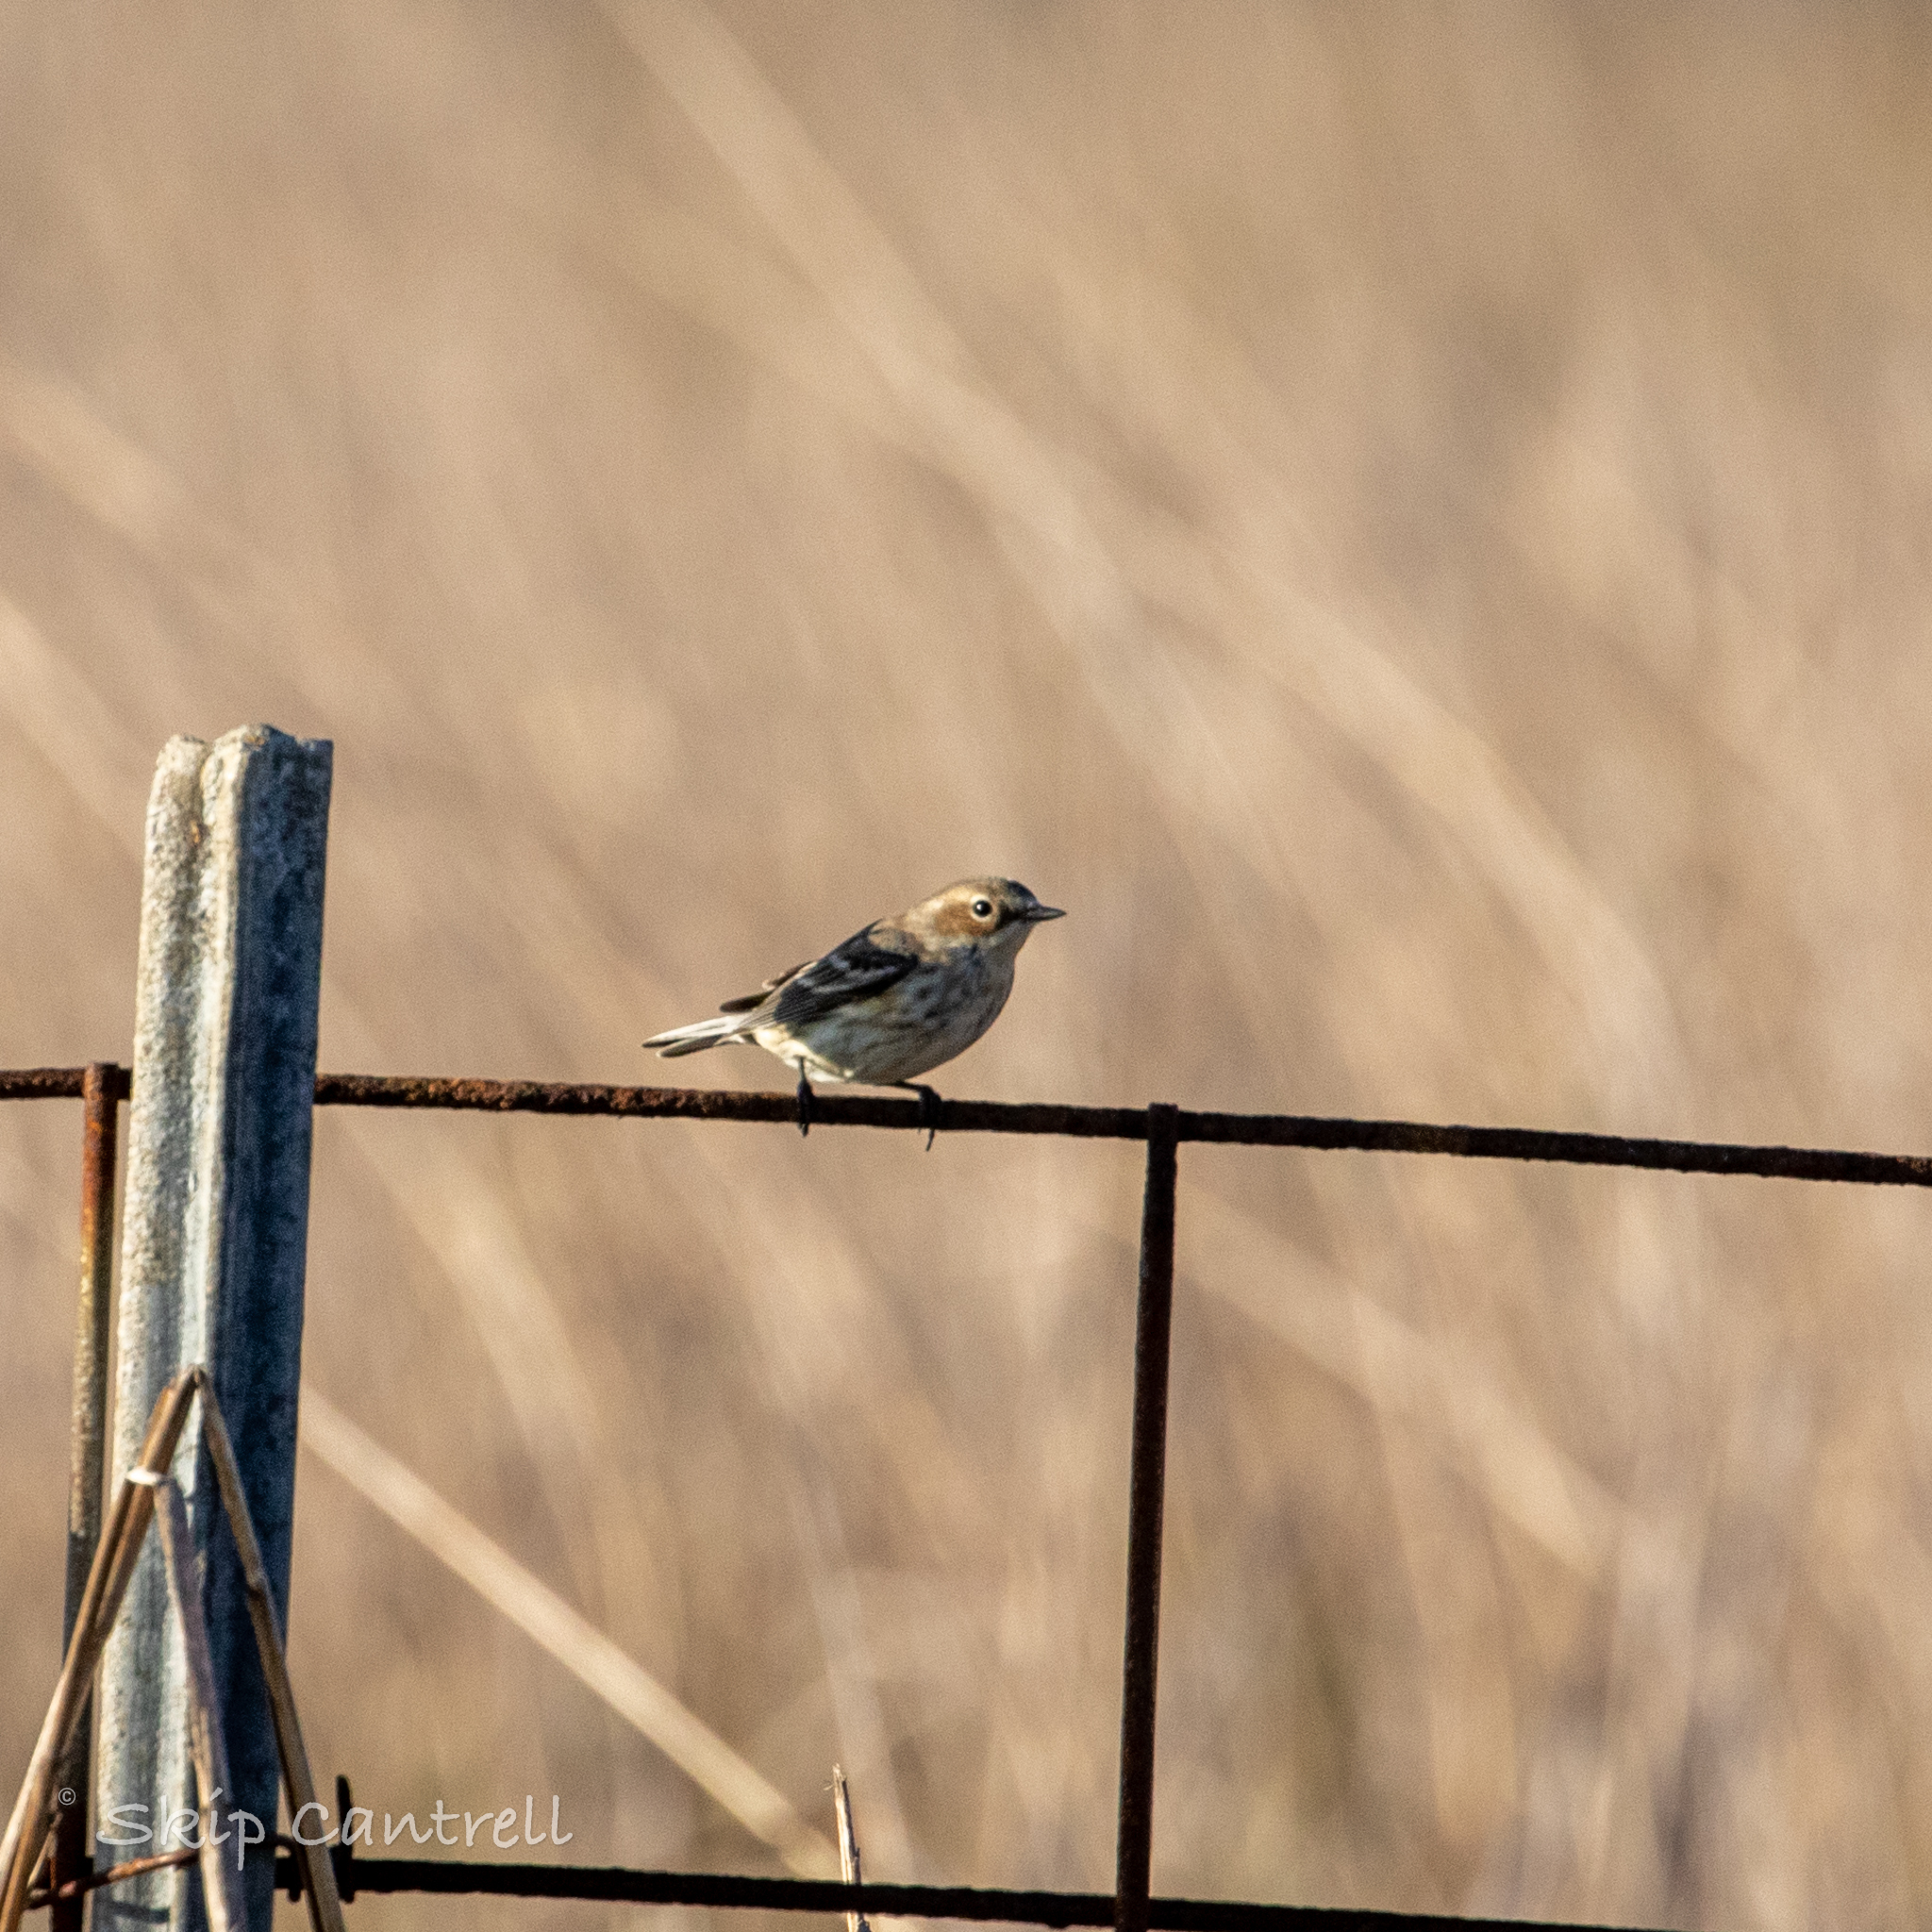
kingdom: Animalia
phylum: Chordata
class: Aves
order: Passeriformes
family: Parulidae
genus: Setophaga
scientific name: Setophaga coronata
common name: Myrtle warbler
